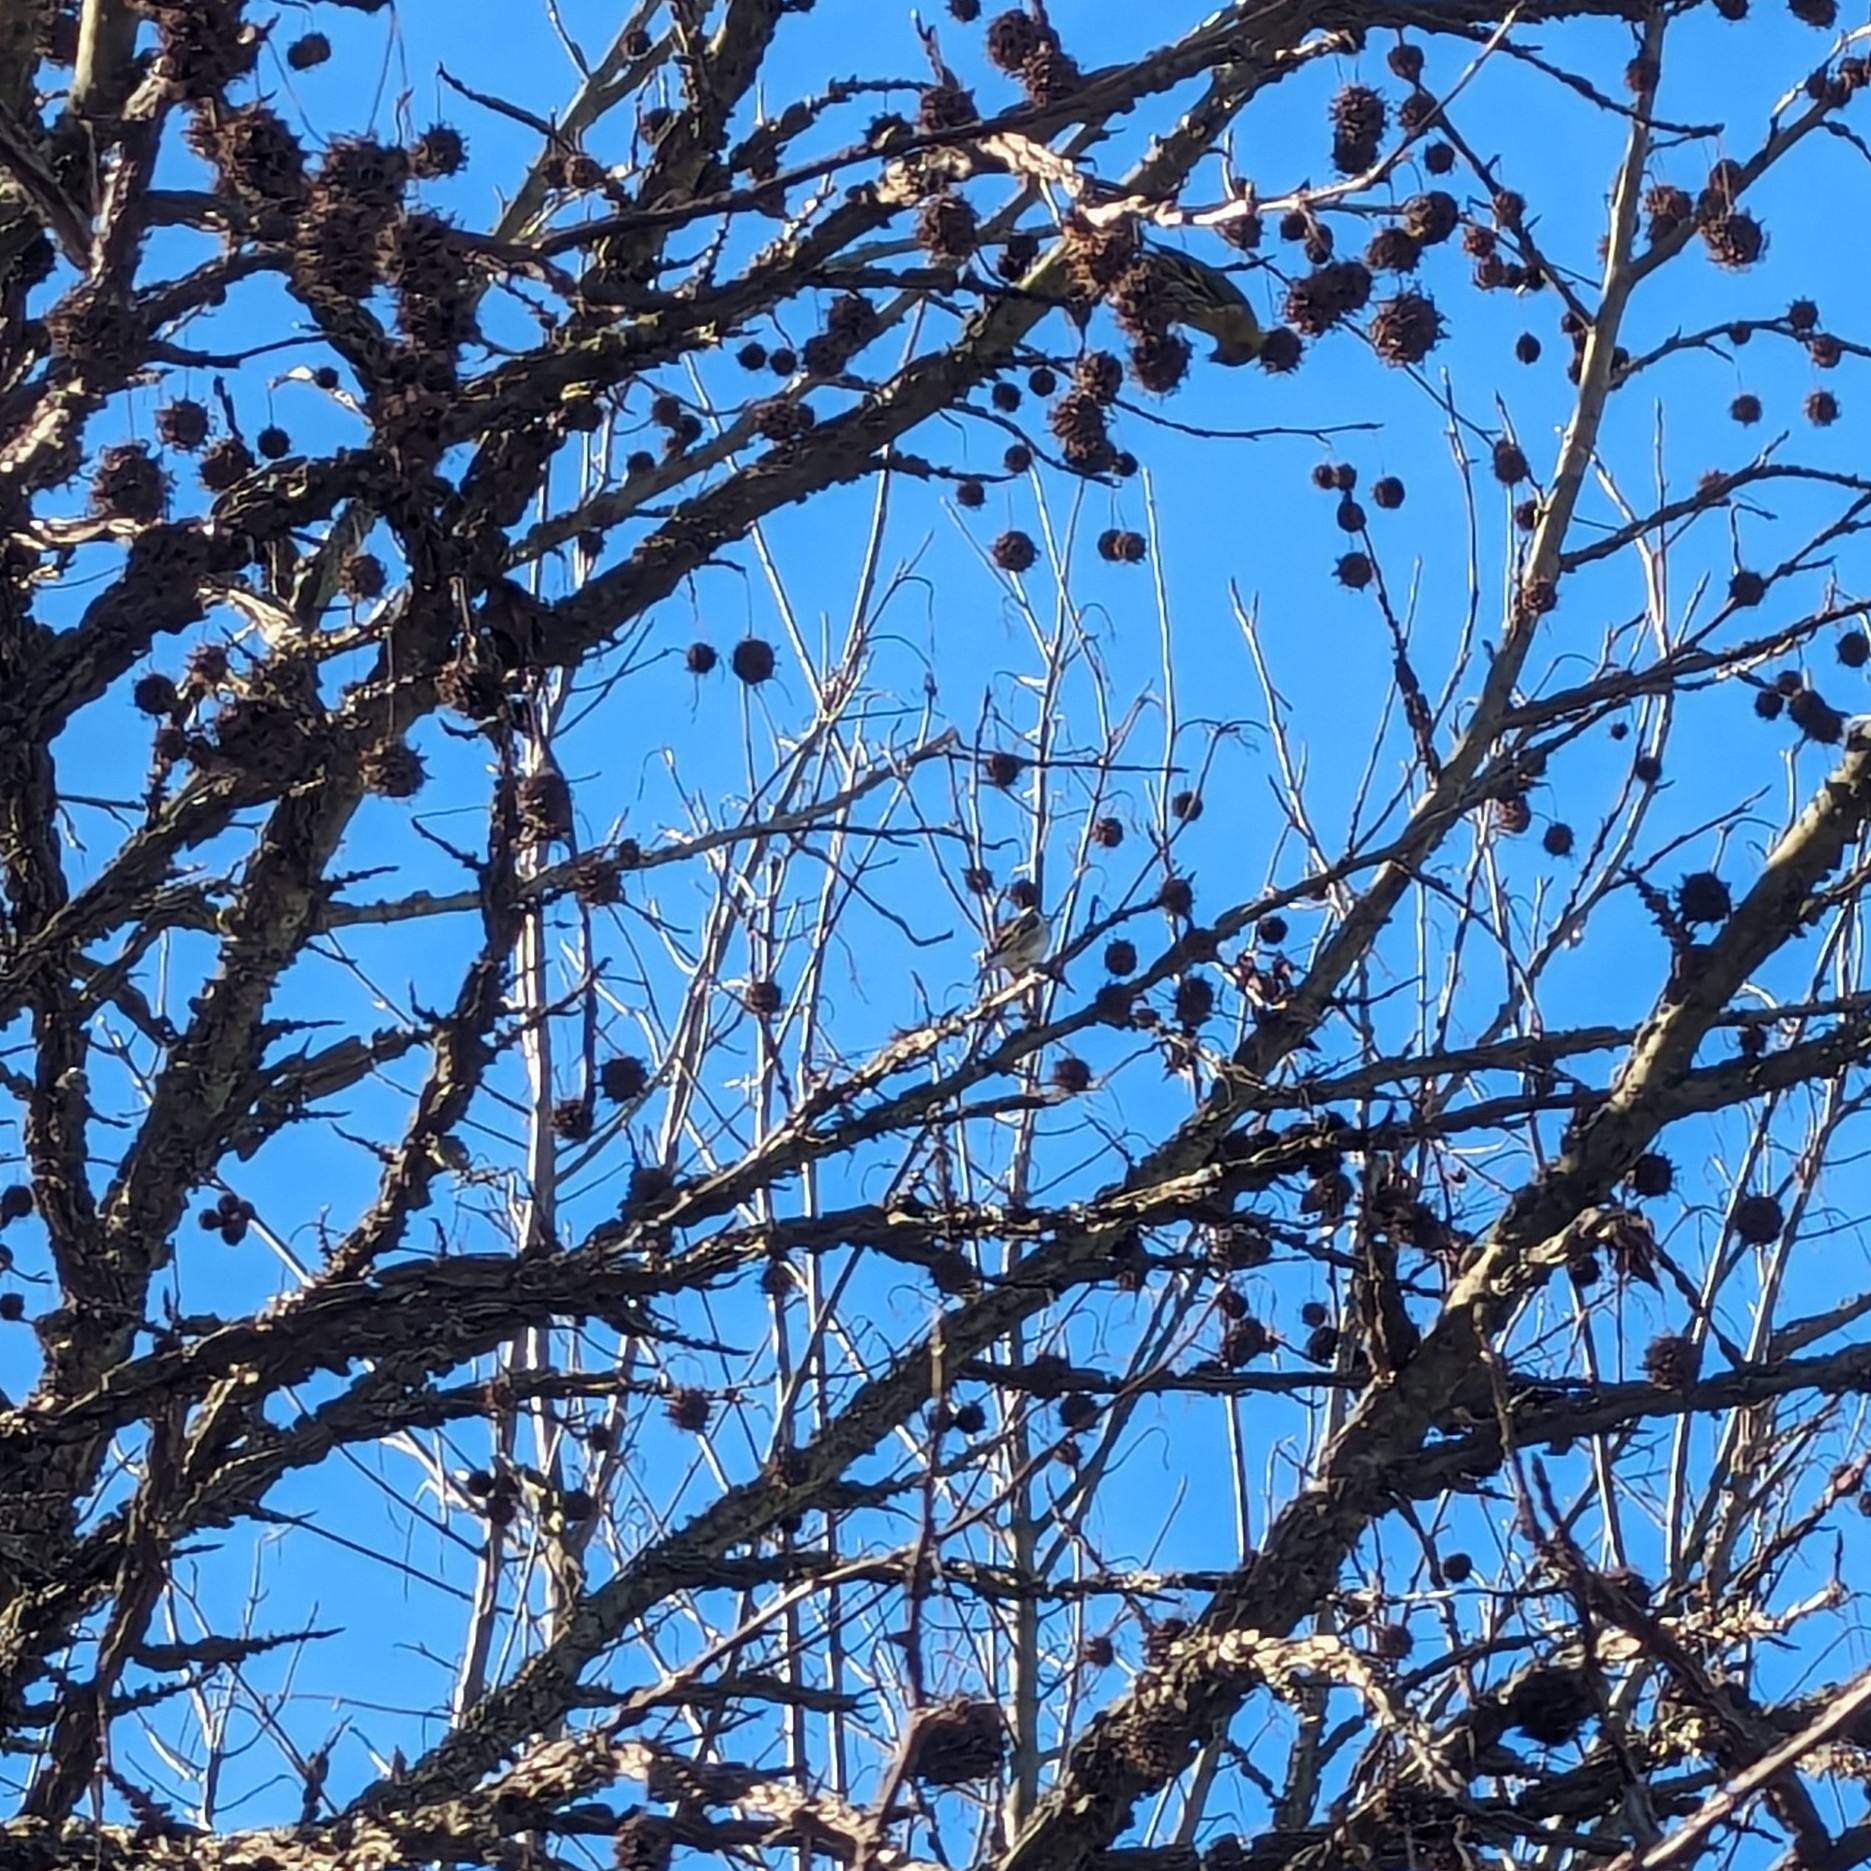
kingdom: Animalia
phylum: Chordata
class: Aves
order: Passeriformes
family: Fringillidae
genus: Carduelis
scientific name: Carduelis carduelis
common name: European goldfinch
